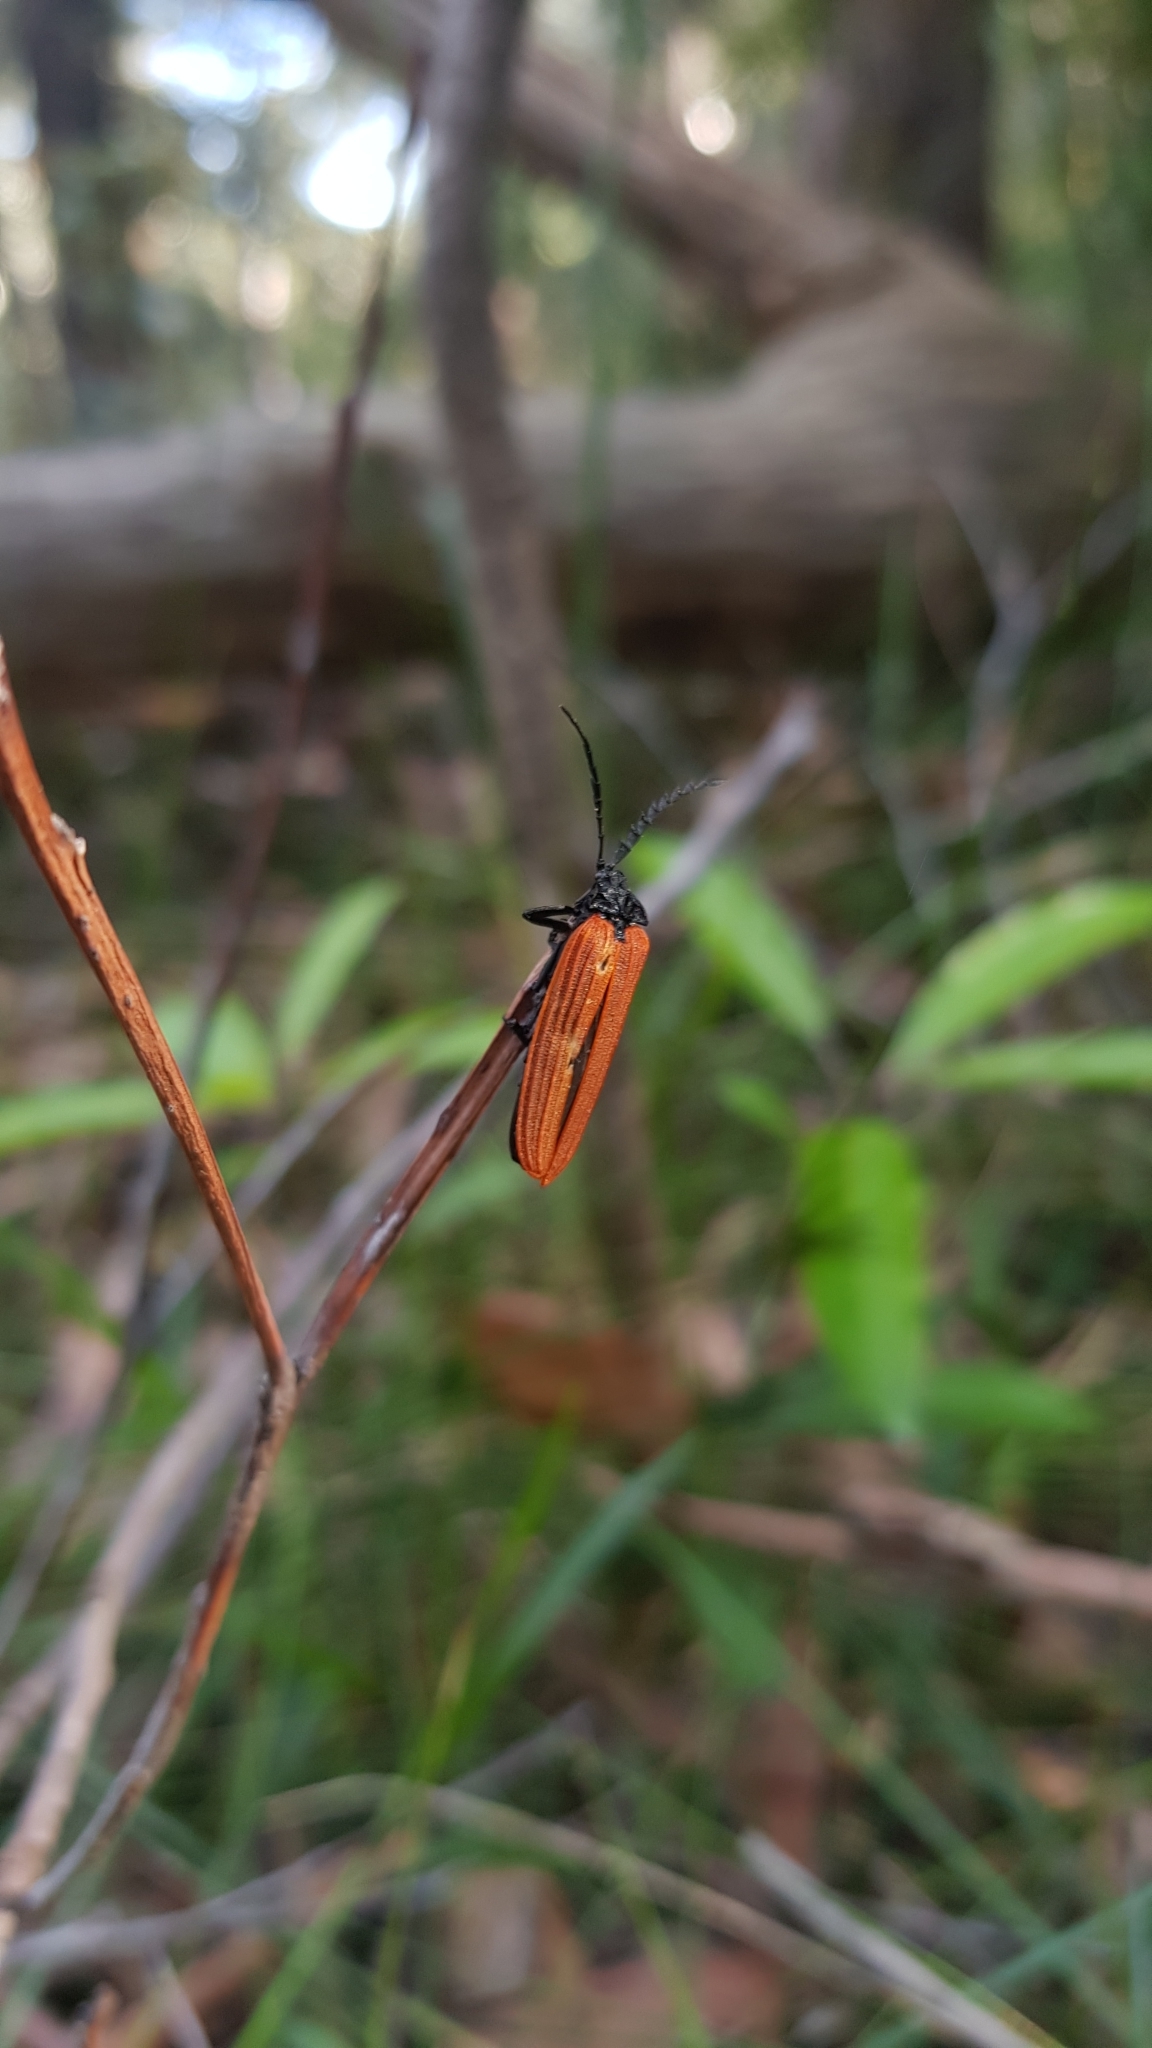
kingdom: Animalia
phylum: Arthropoda
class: Insecta
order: Coleoptera
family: Lycidae
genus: Porrostoma
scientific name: Porrostoma rhipidium
